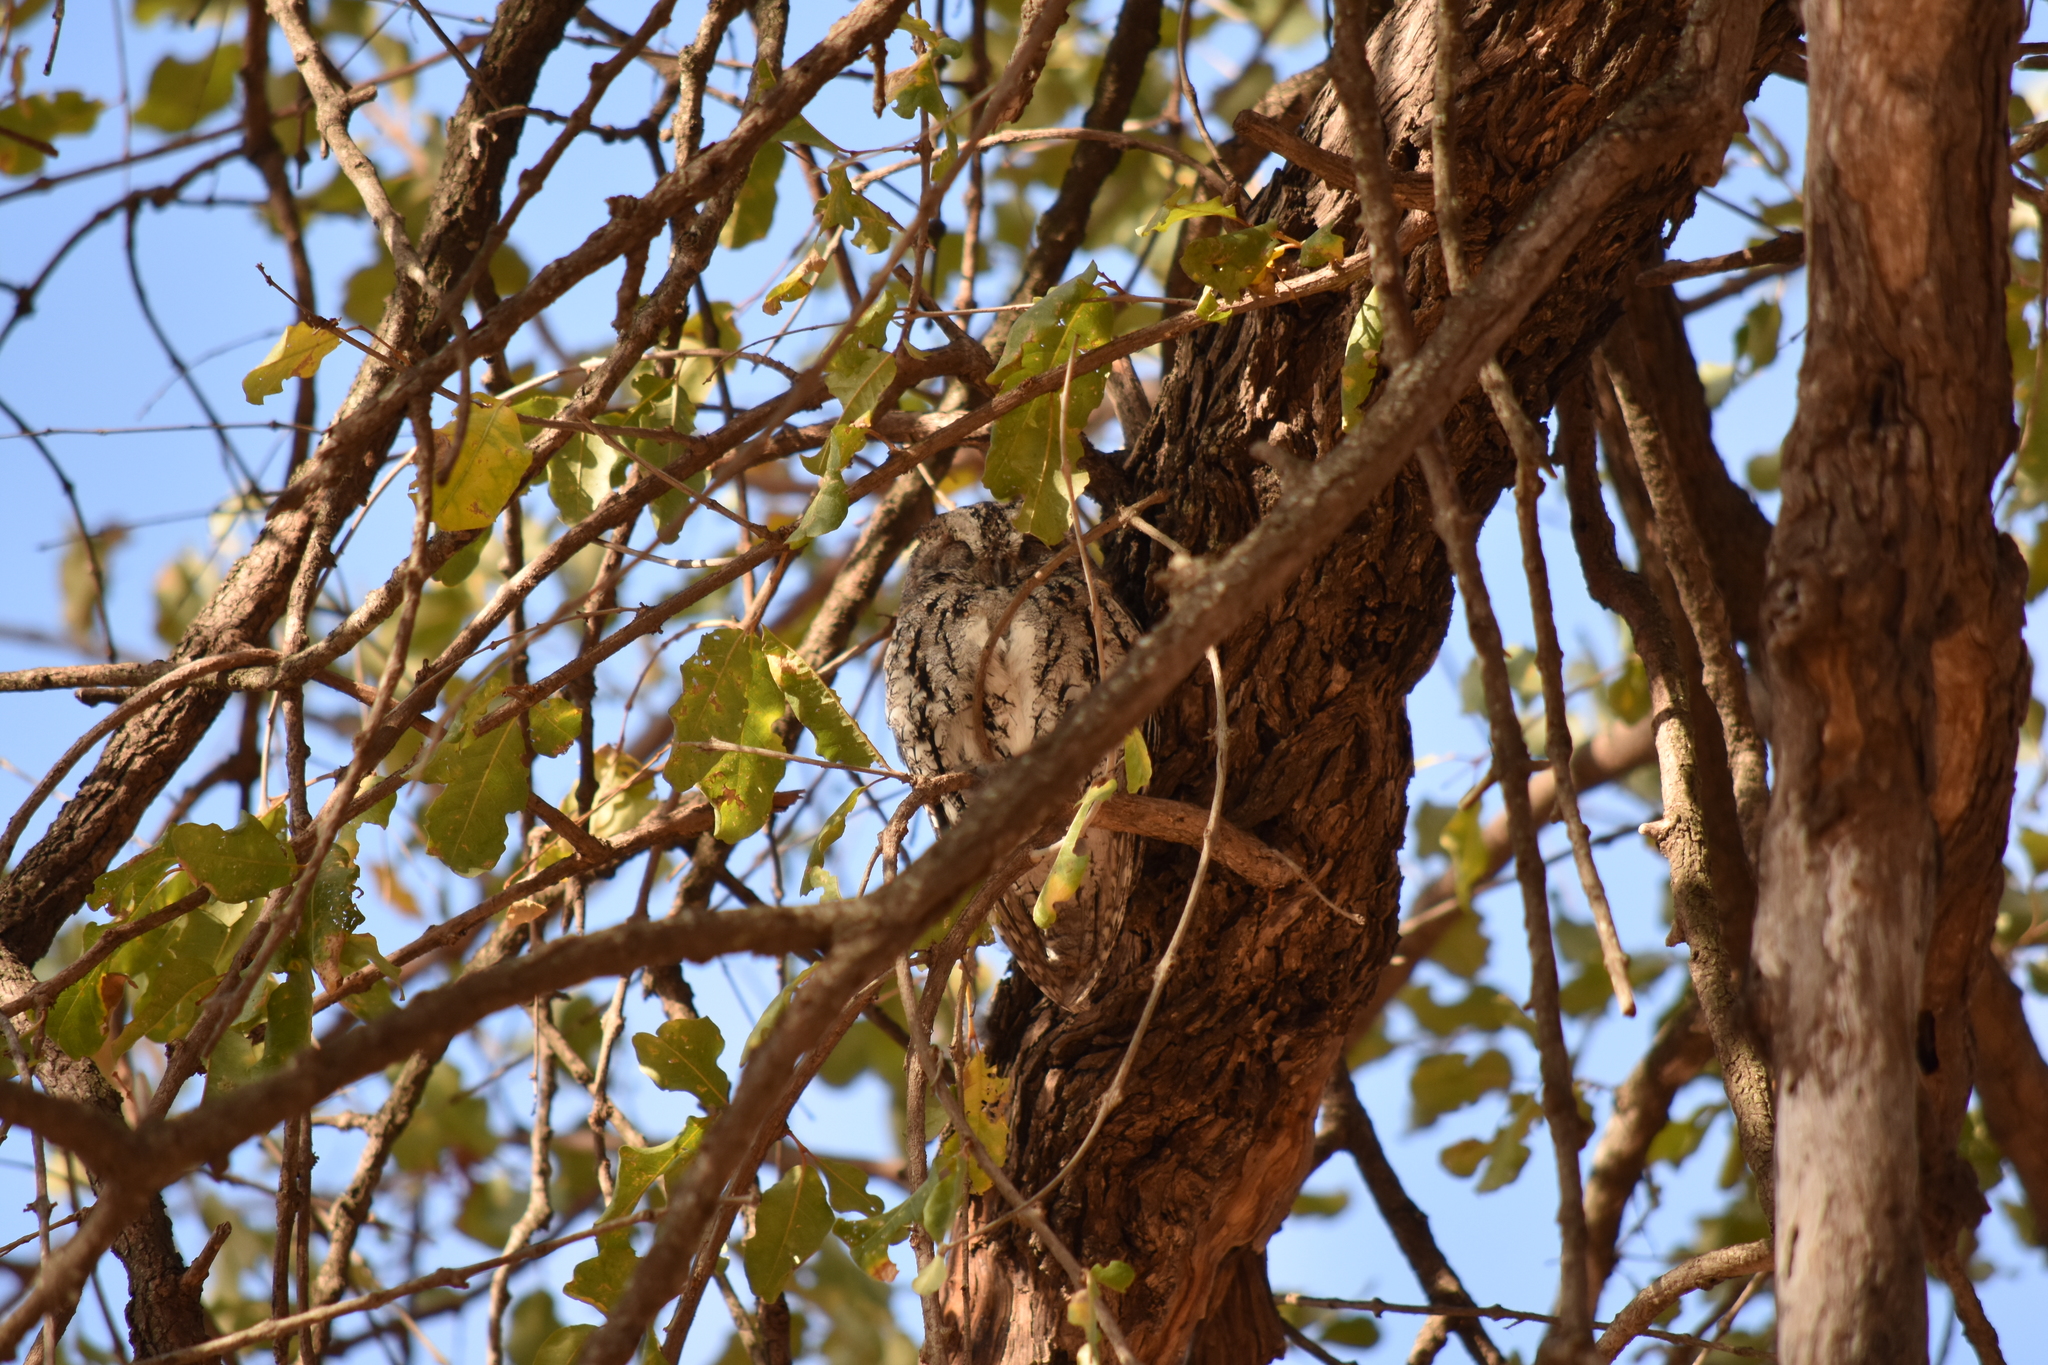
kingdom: Animalia
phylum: Chordata
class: Aves
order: Strigiformes
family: Strigidae
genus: Otus
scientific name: Otus senegalensis
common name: African scops owl
